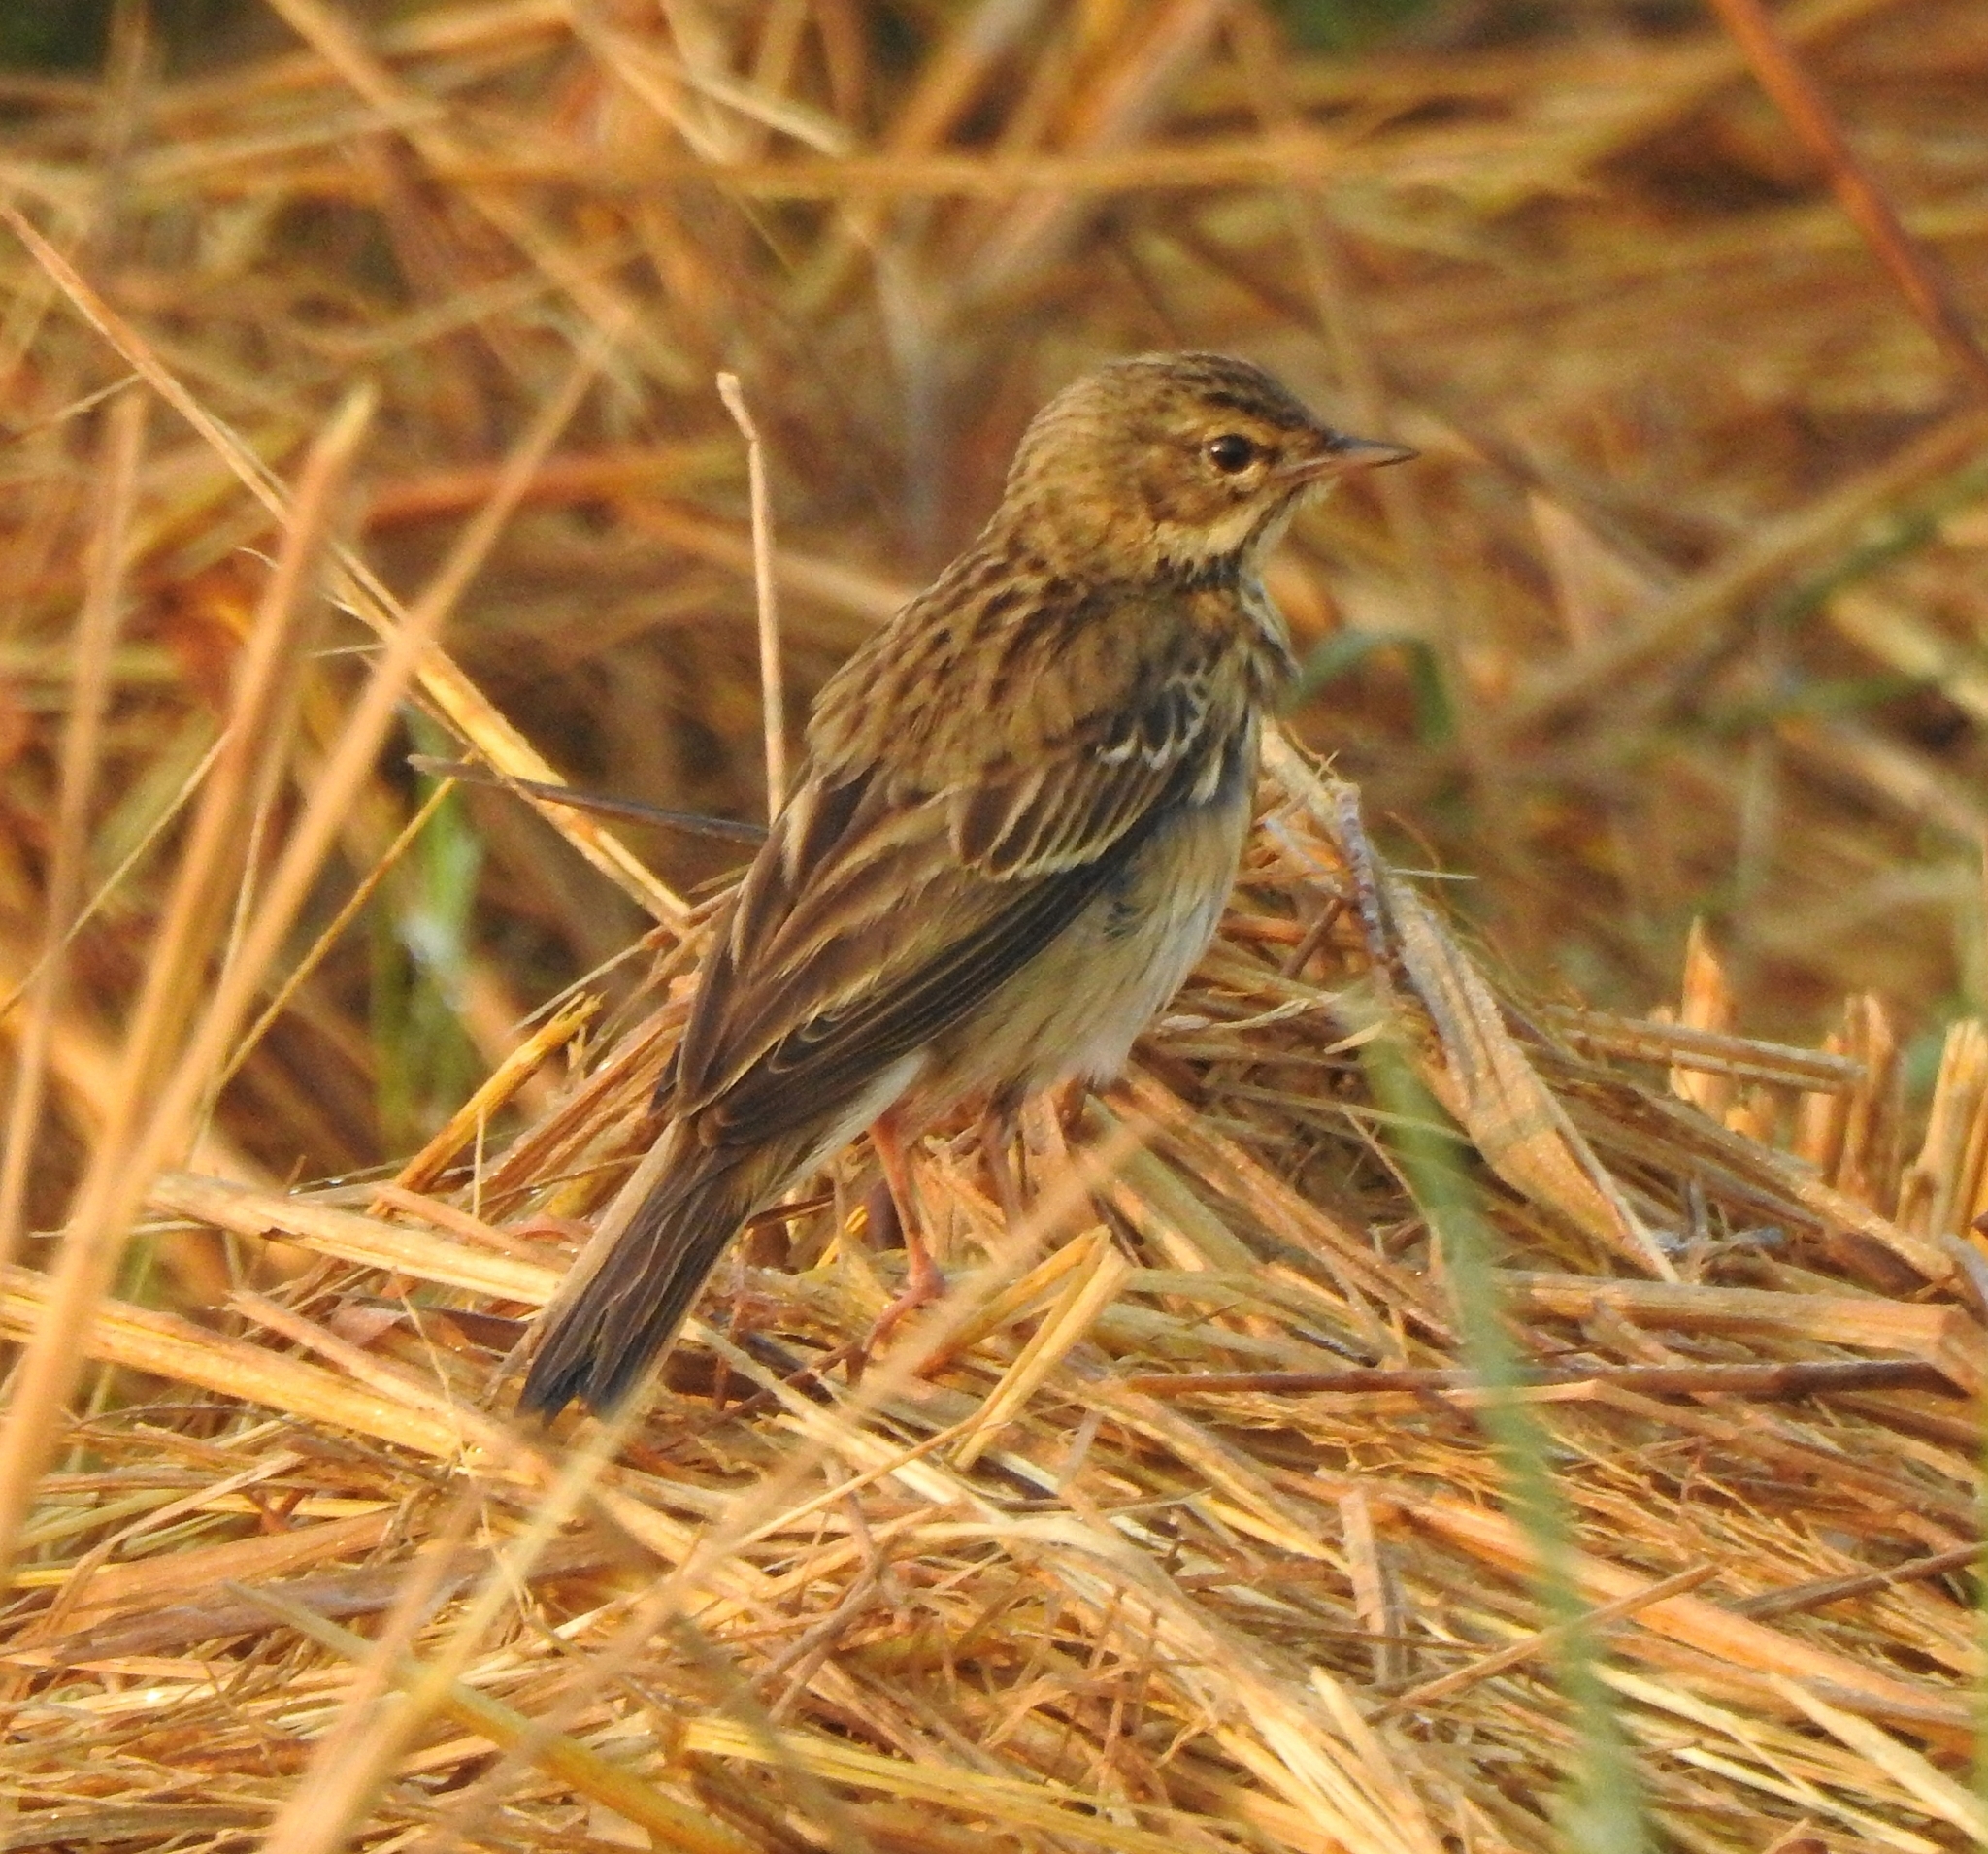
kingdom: Animalia
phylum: Chordata
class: Aves
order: Passeriformes
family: Motacillidae
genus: Anthus
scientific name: Anthus trivialis
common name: Tree pipit
